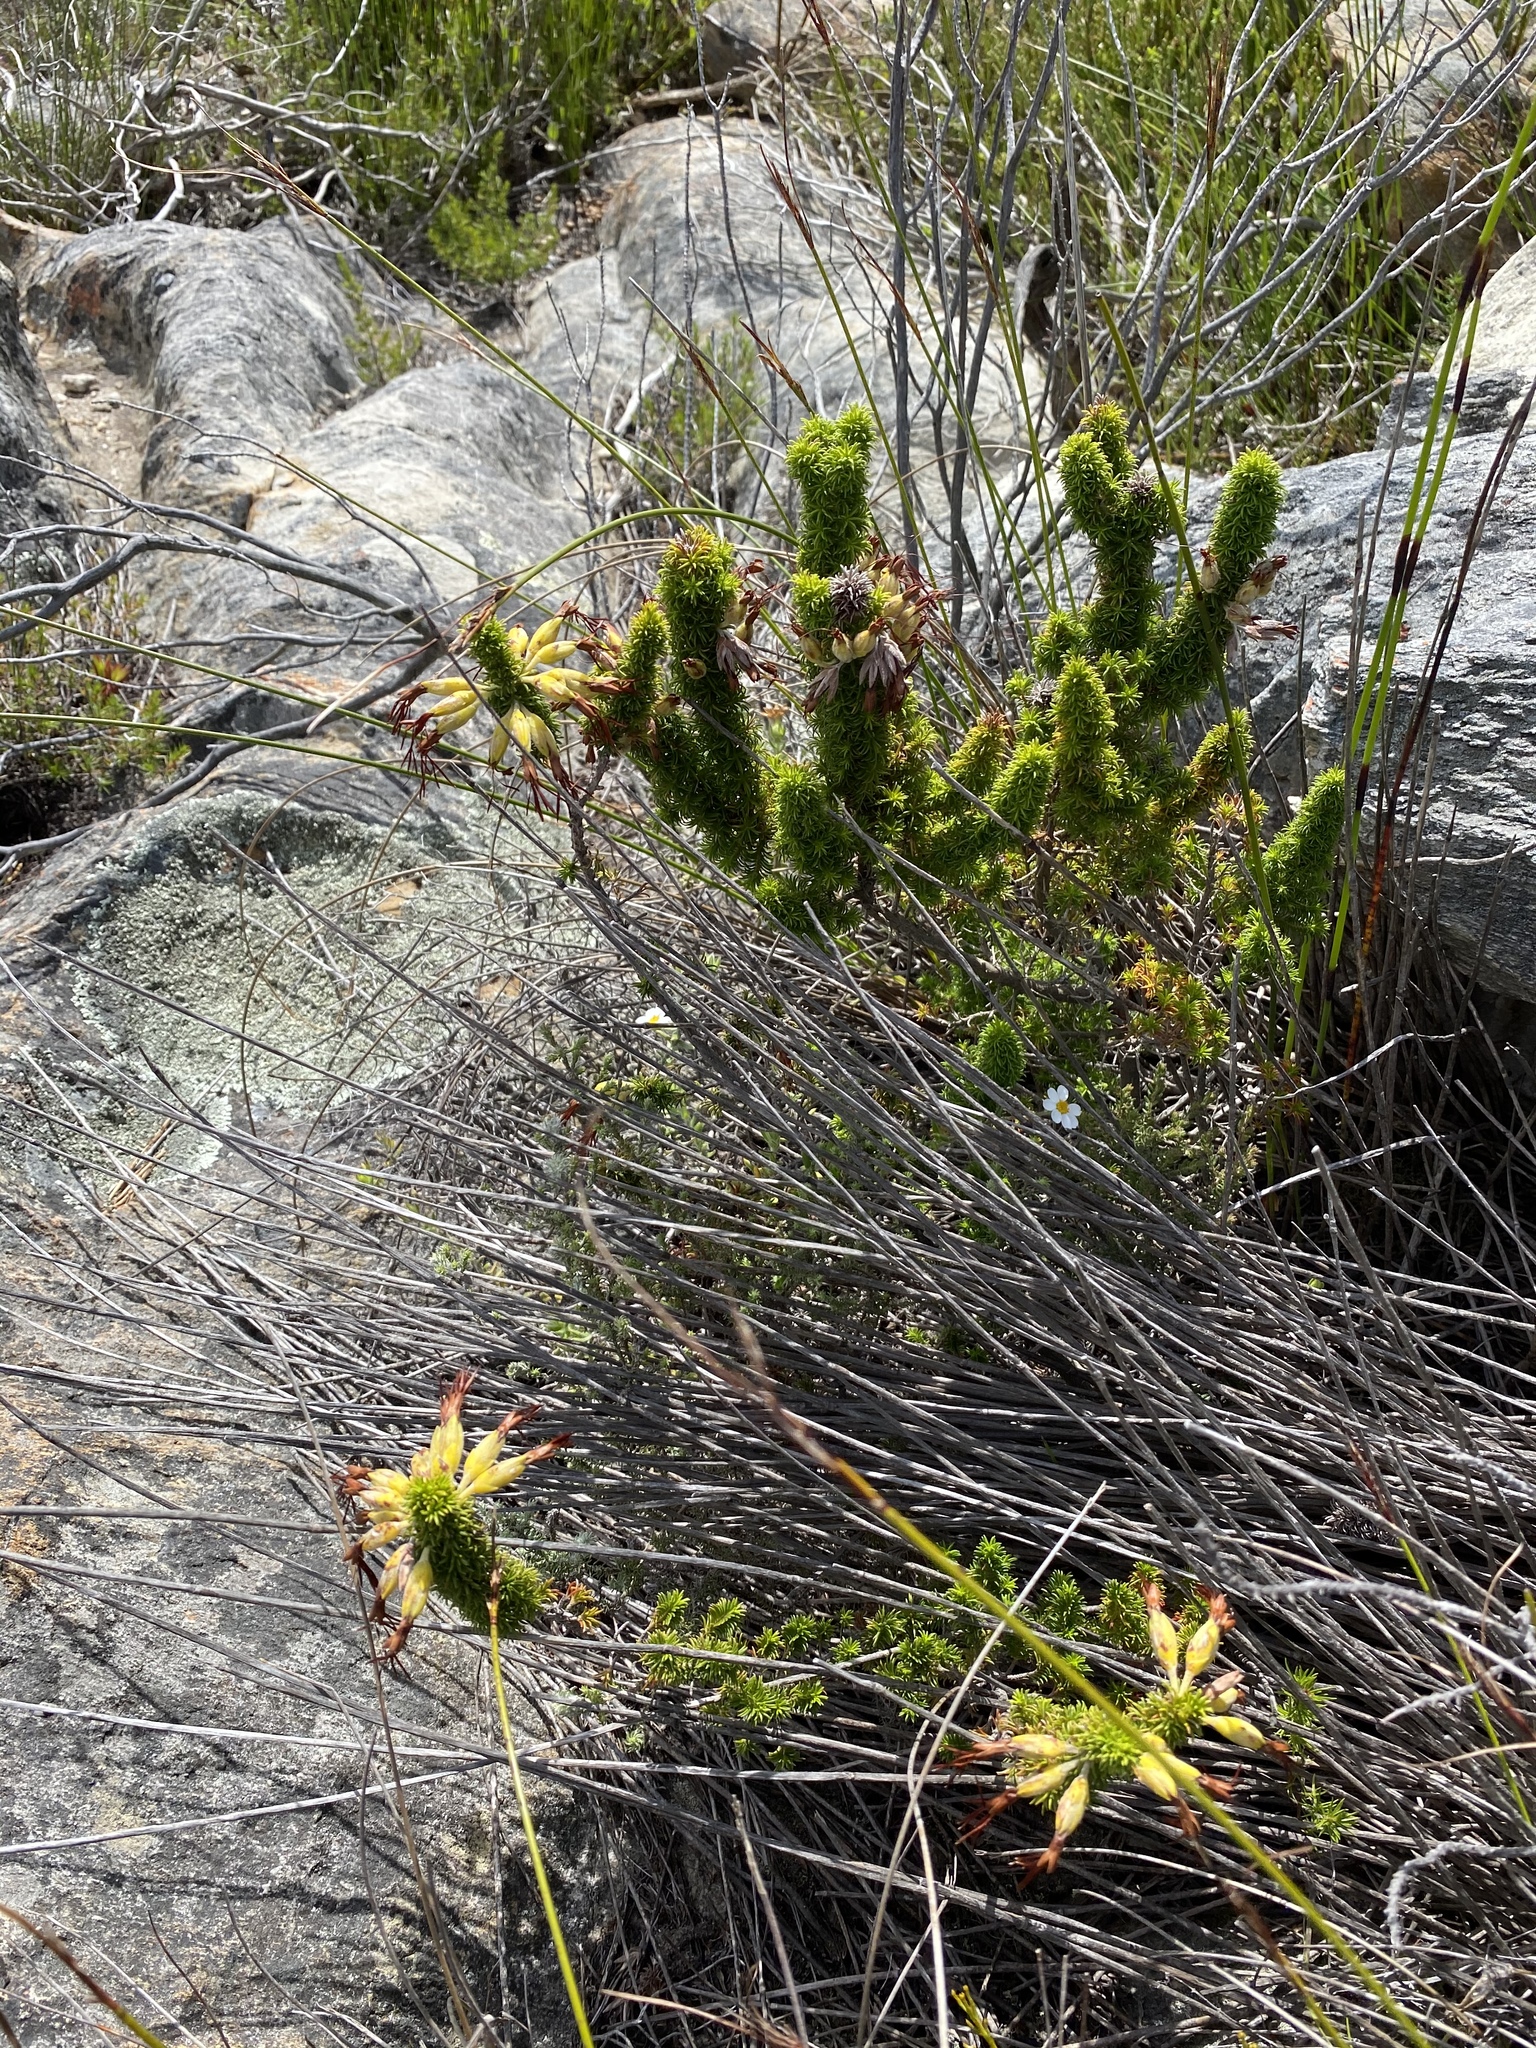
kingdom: Plantae
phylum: Tracheophyta
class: Magnoliopsida
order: Ericales
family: Ericaceae
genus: Erica
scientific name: Erica coccinea
